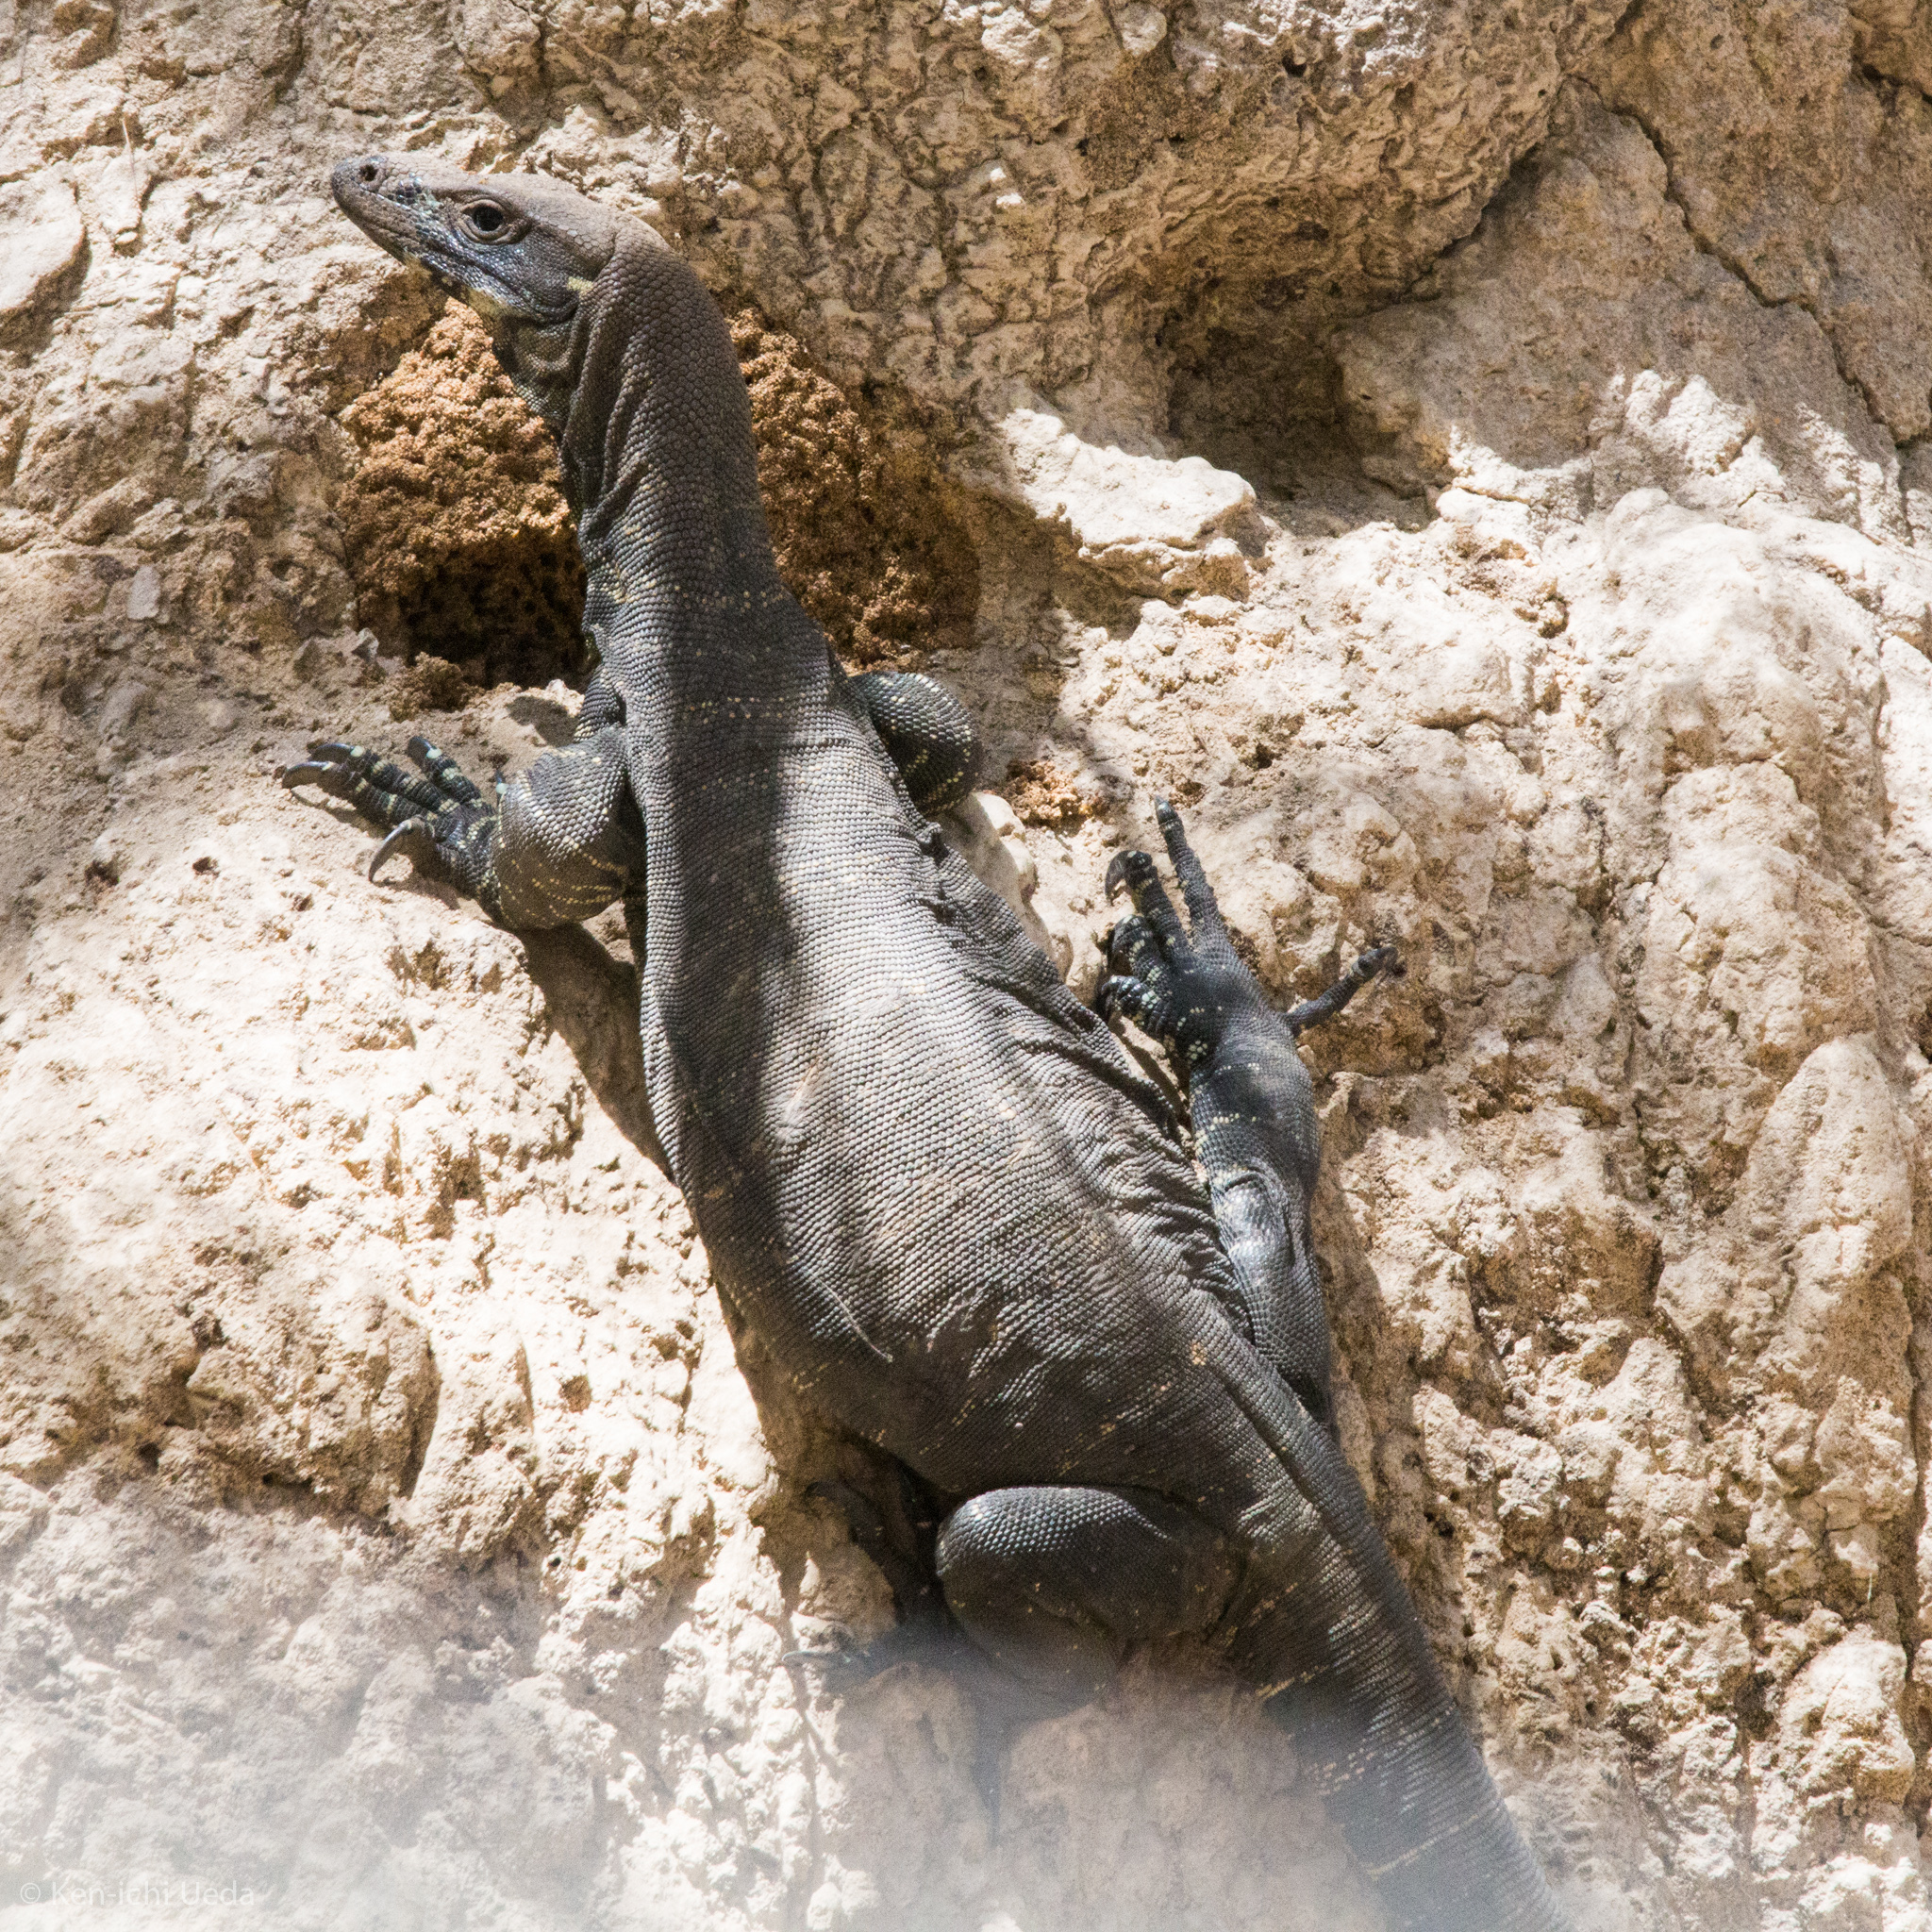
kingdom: Animalia
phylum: Chordata
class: Squamata
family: Varanidae
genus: Varanus
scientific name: Varanus varius
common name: Lace monitor
